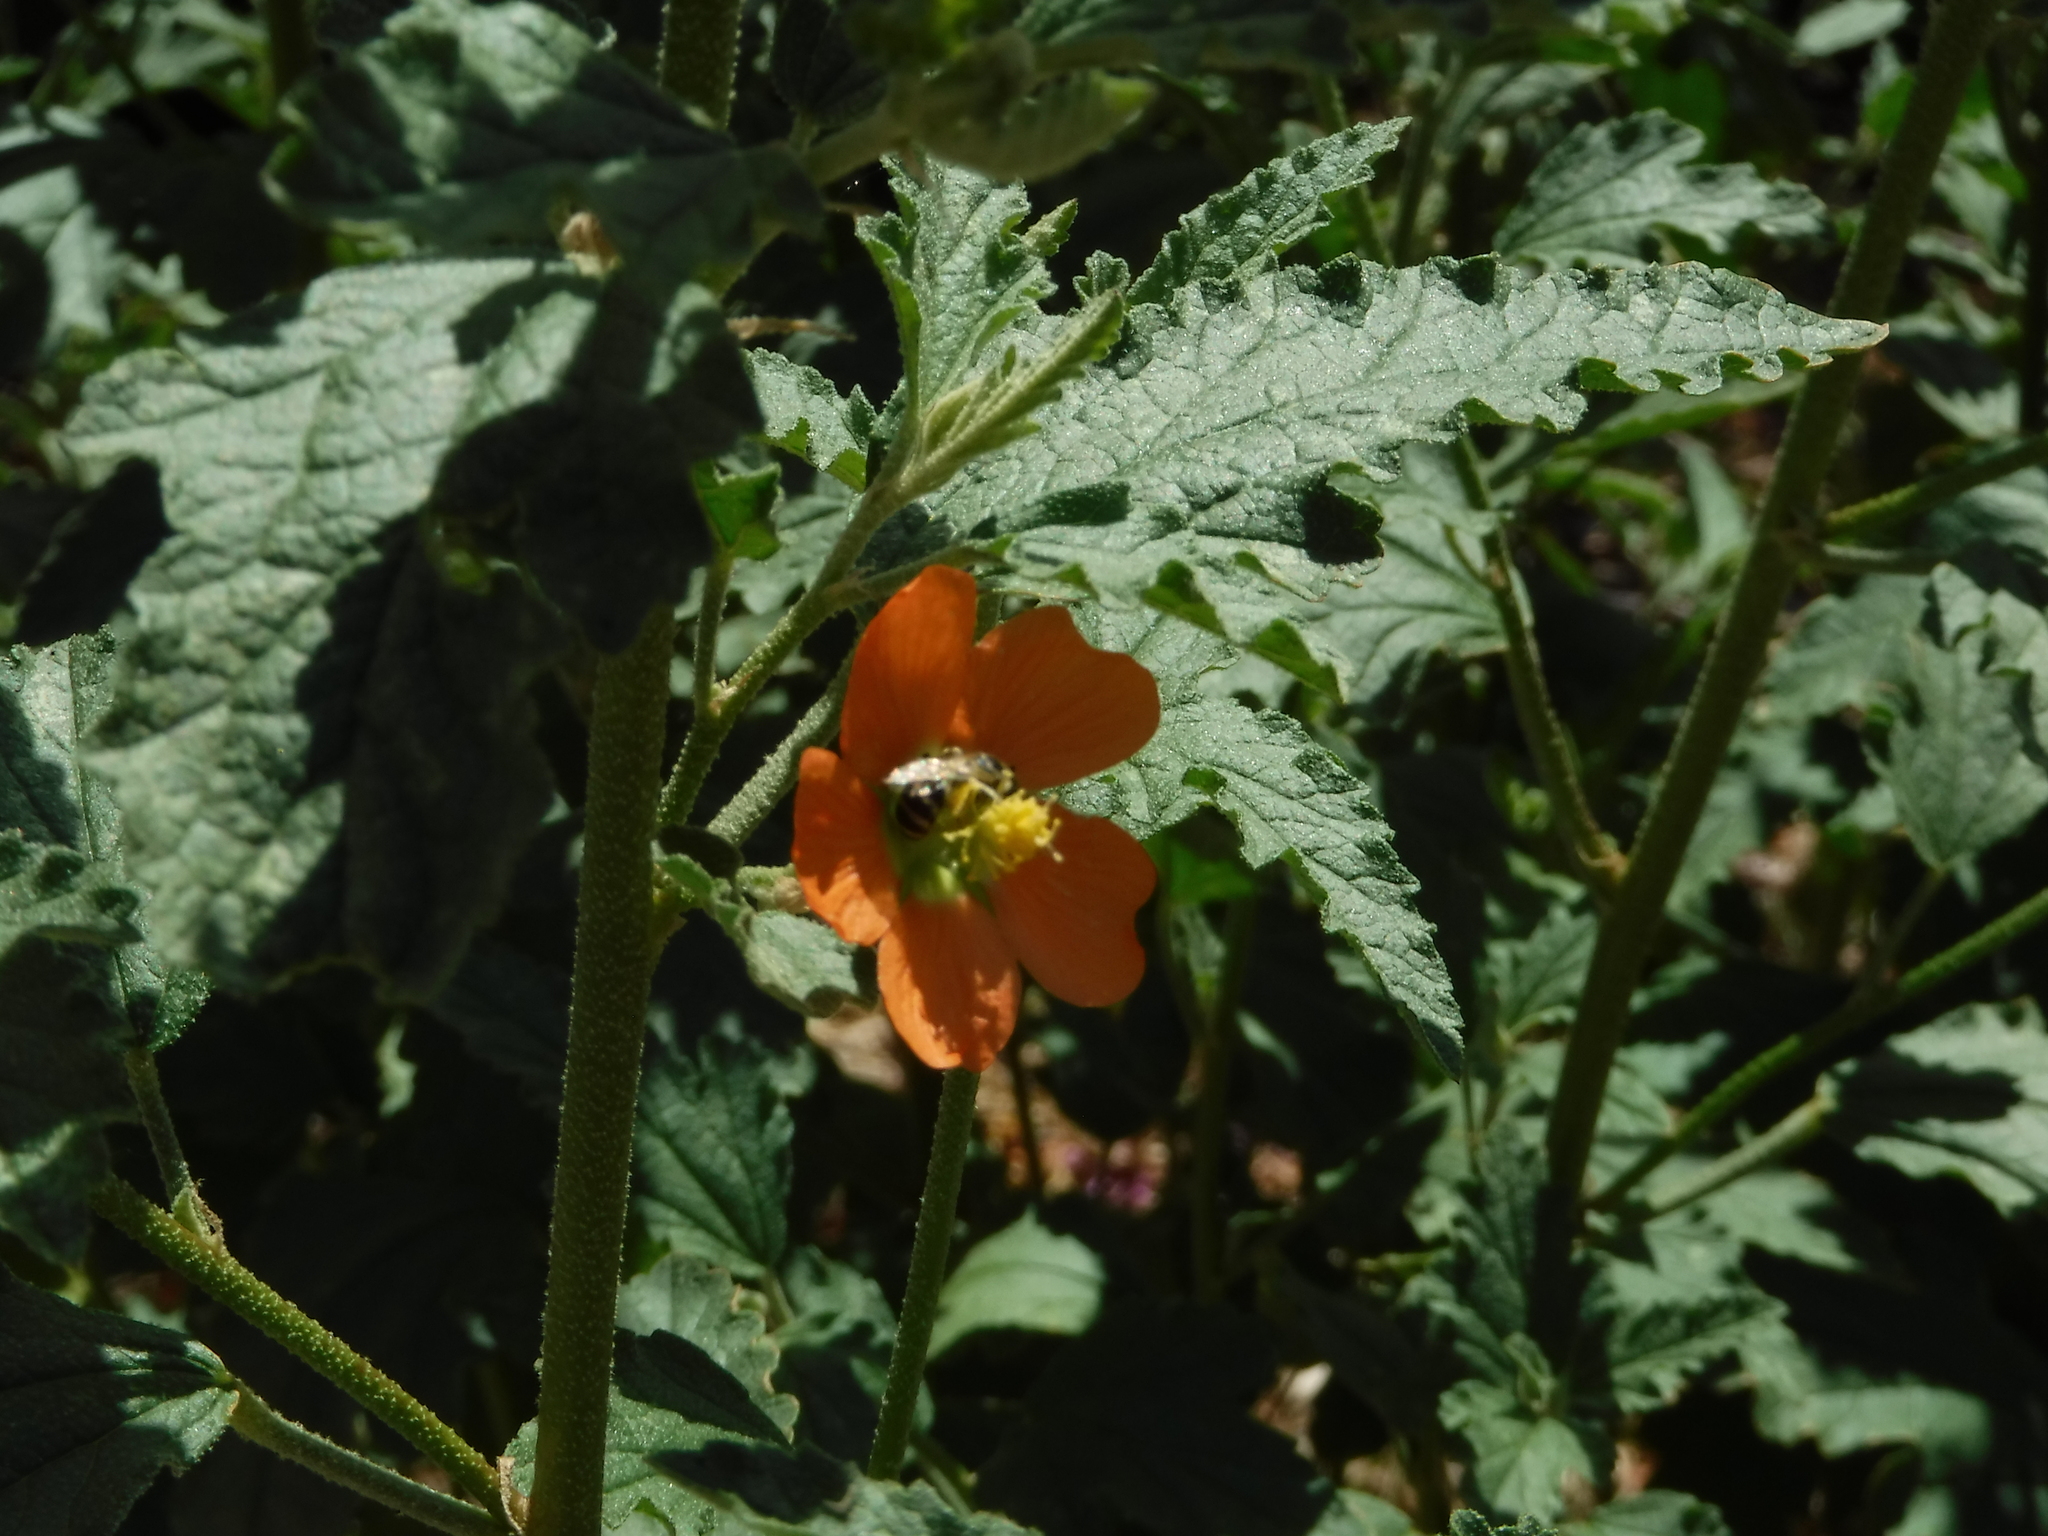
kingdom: Animalia
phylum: Arthropoda
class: Insecta
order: Hymenoptera
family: Halictidae
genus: Lasioglossum
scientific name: Lasioglossum sisymbrii
